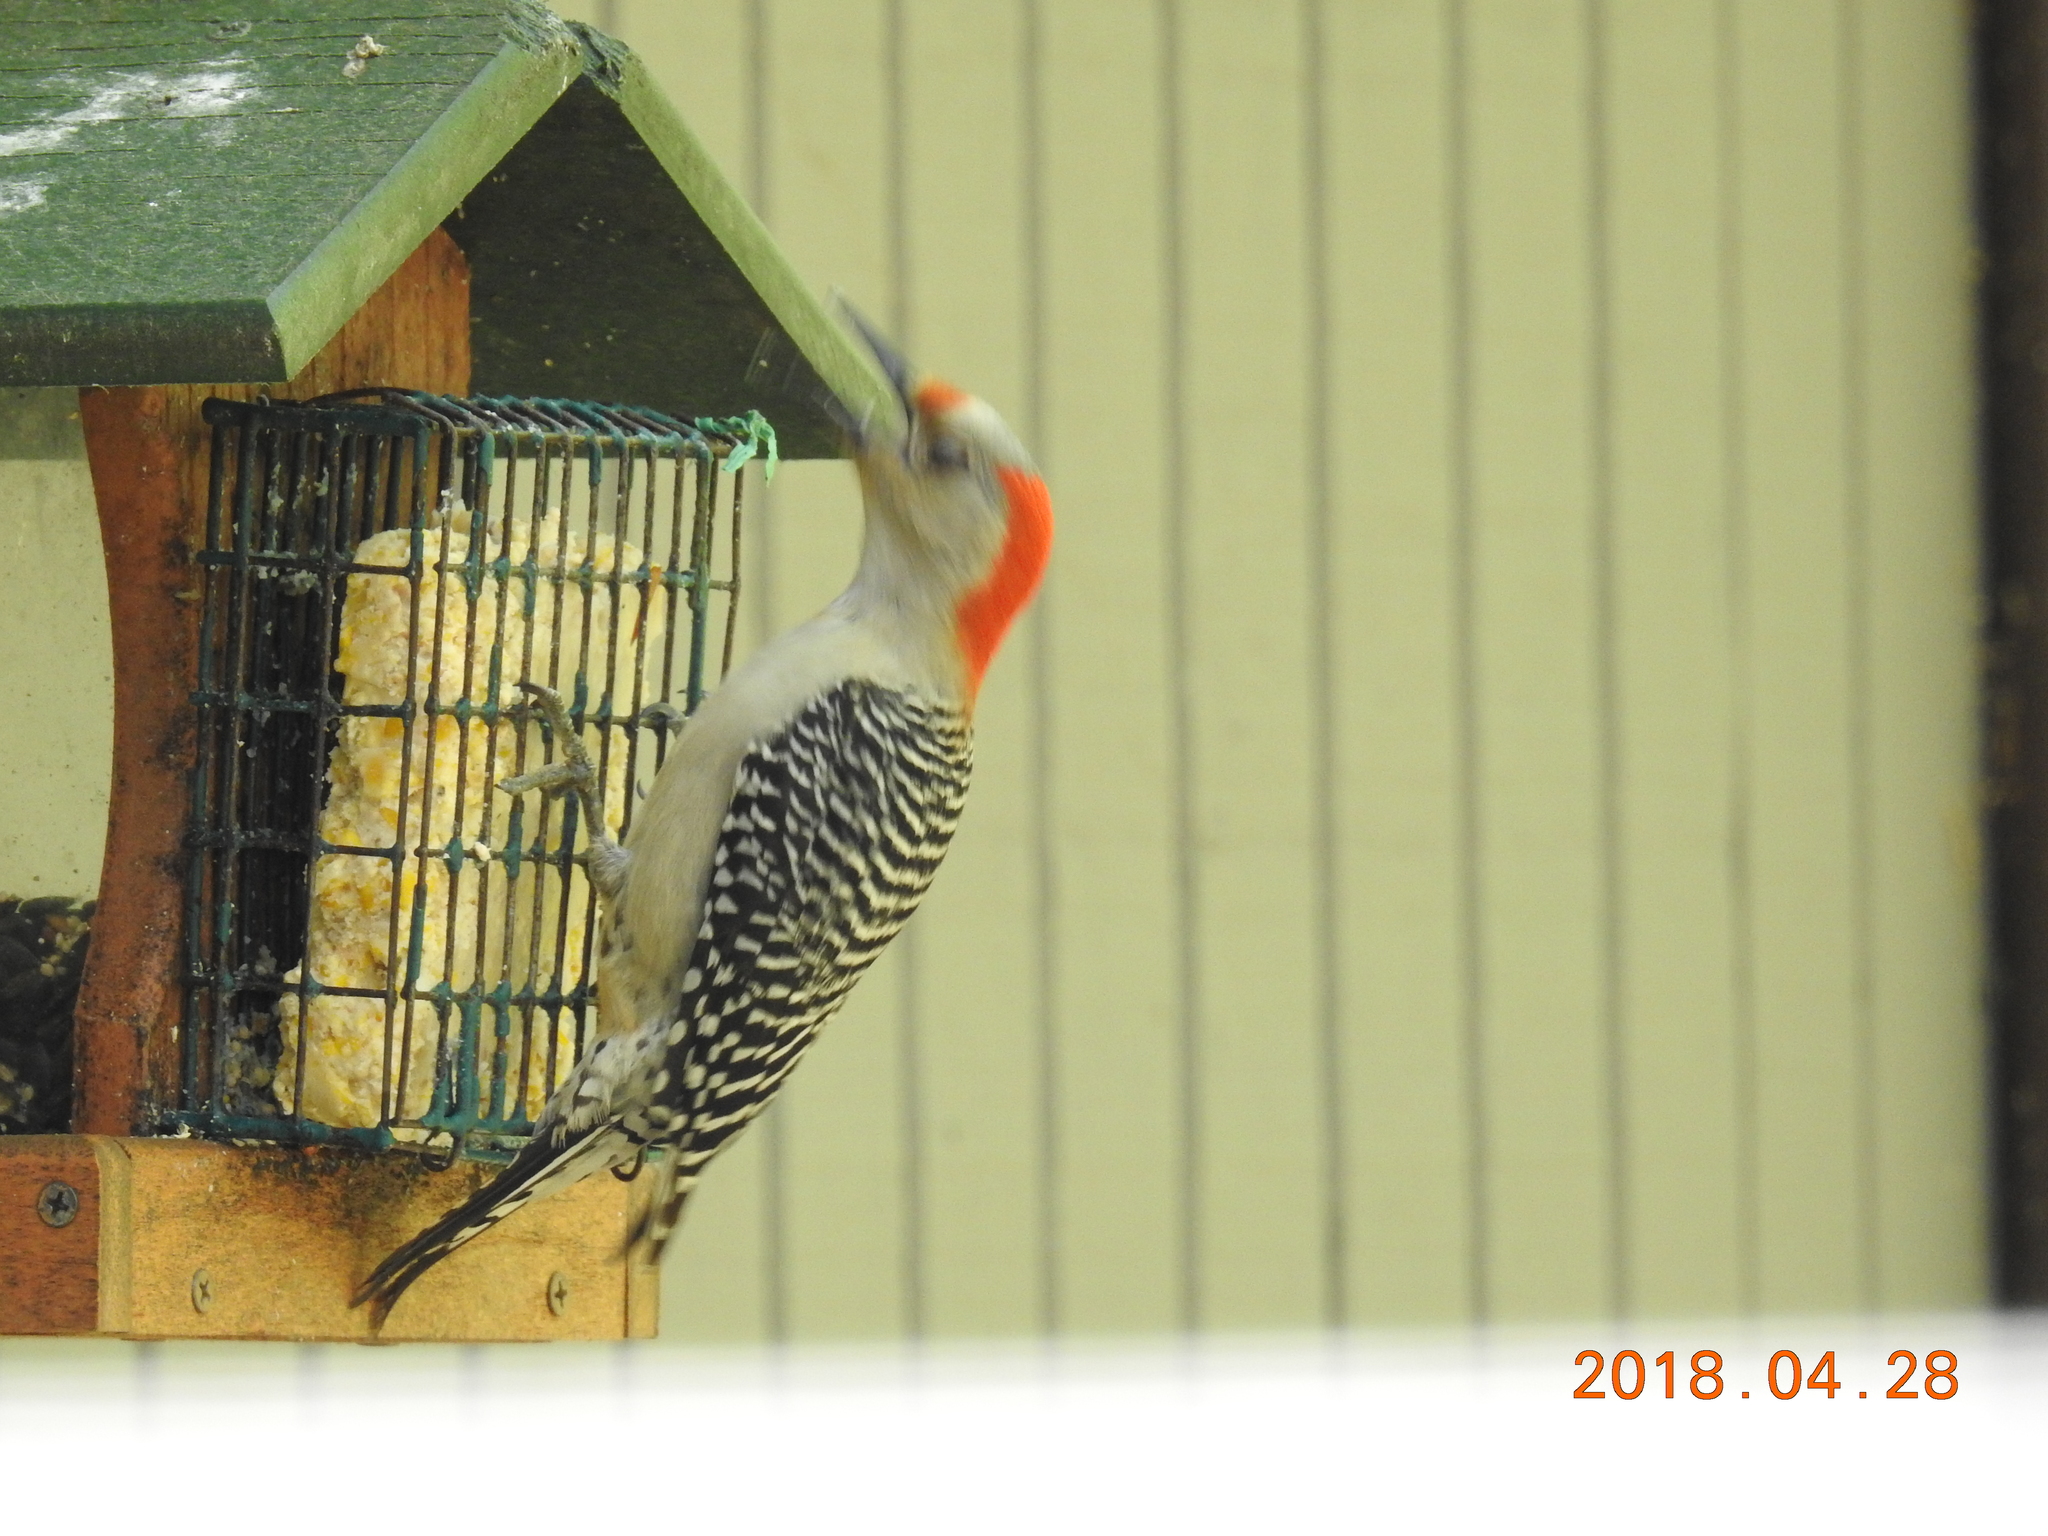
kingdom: Animalia
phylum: Chordata
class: Aves
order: Piciformes
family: Picidae
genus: Melanerpes
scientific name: Melanerpes carolinus
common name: Red-bellied woodpecker
